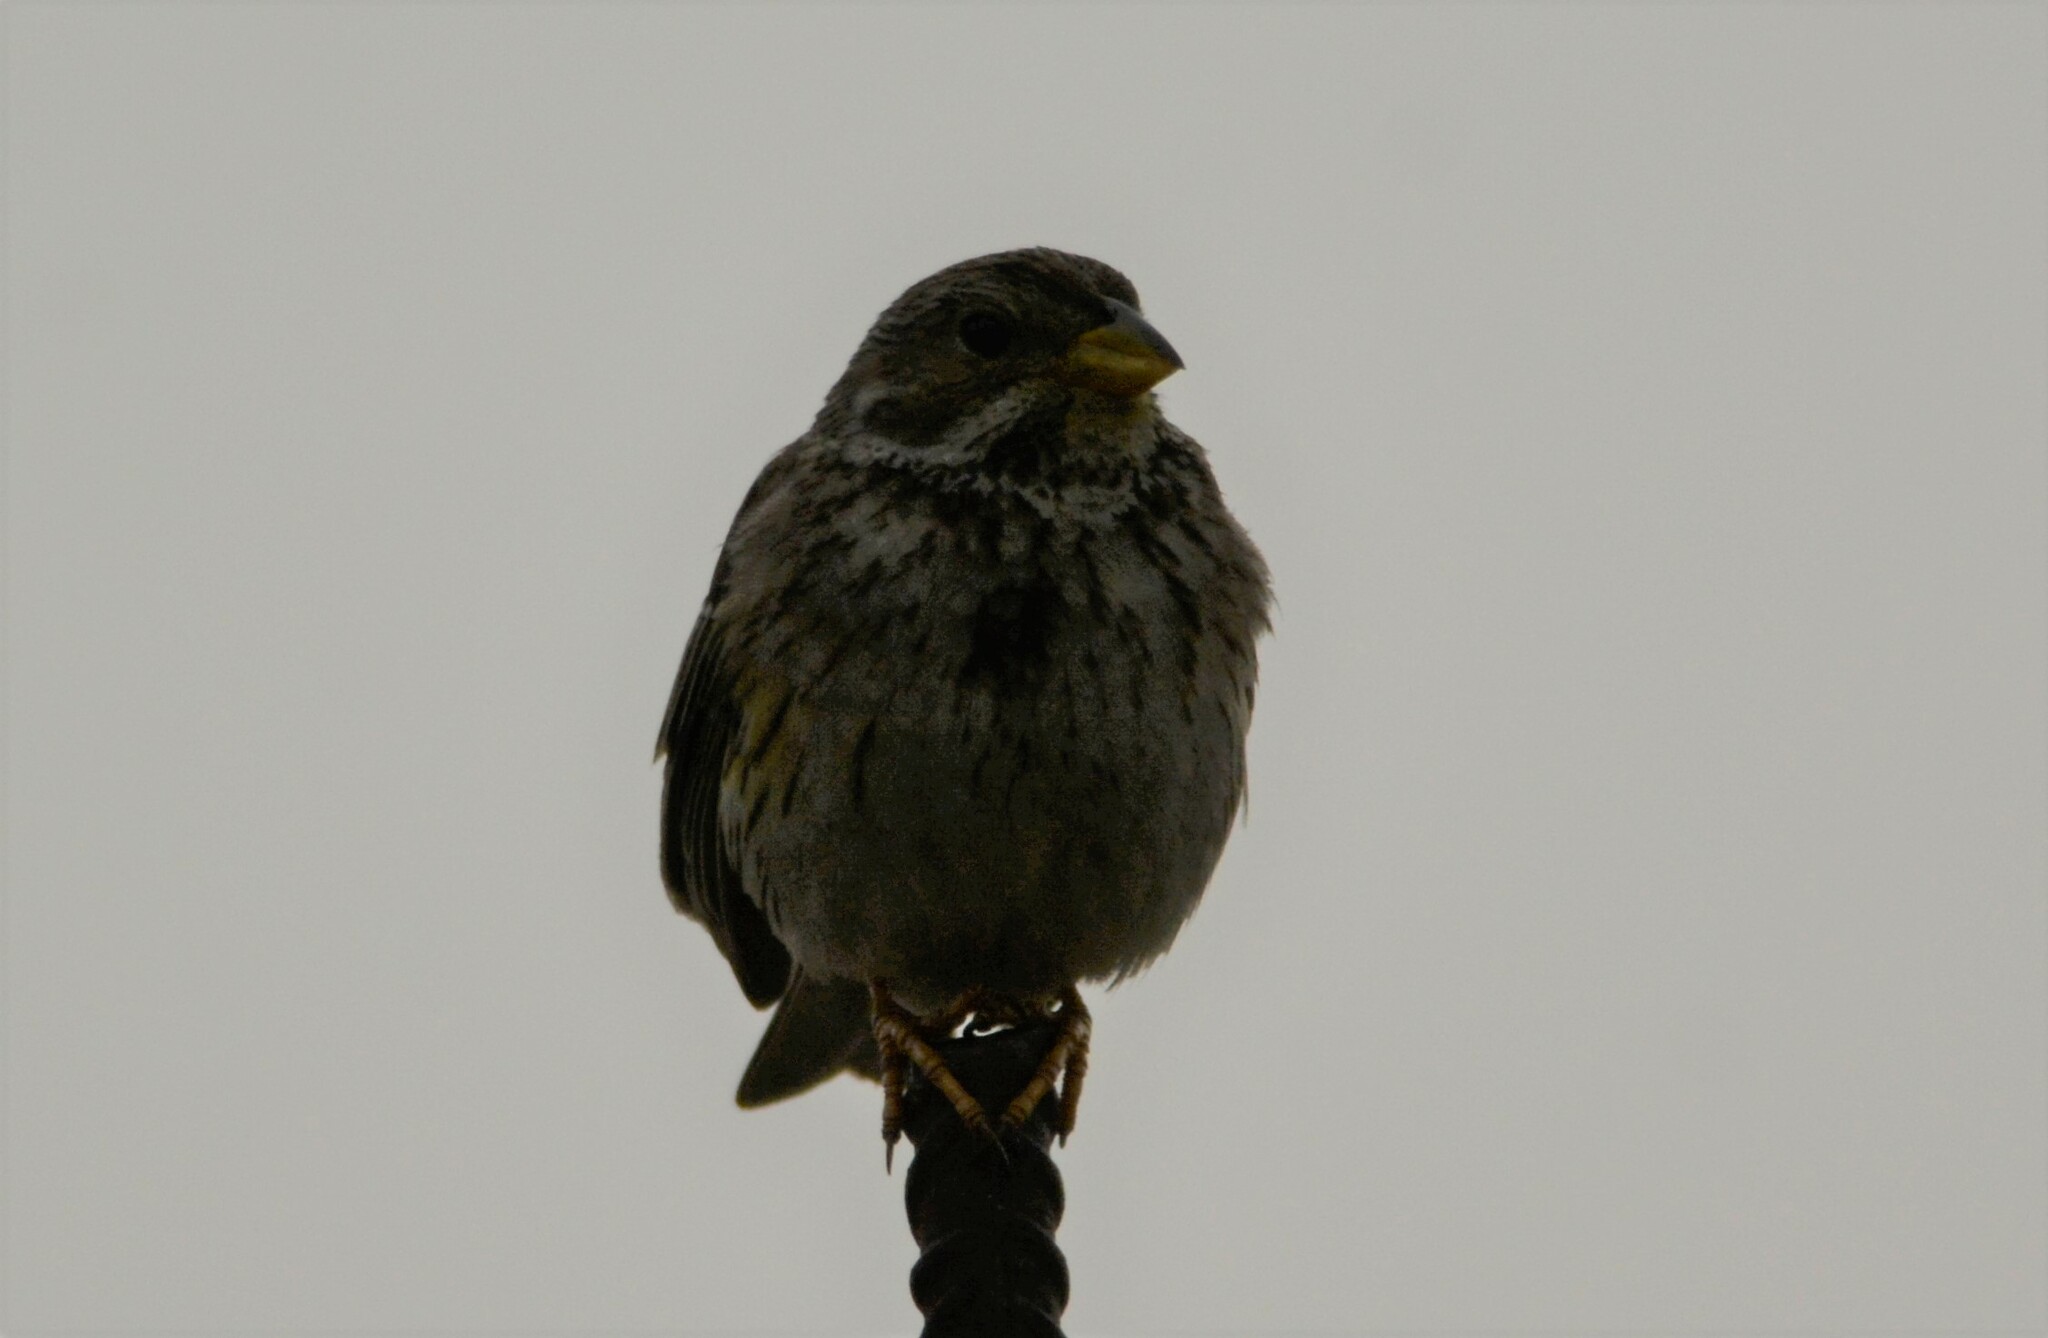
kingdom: Animalia
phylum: Chordata
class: Aves
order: Passeriformes
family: Emberizidae
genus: Emberiza
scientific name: Emberiza calandra
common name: Corn bunting
